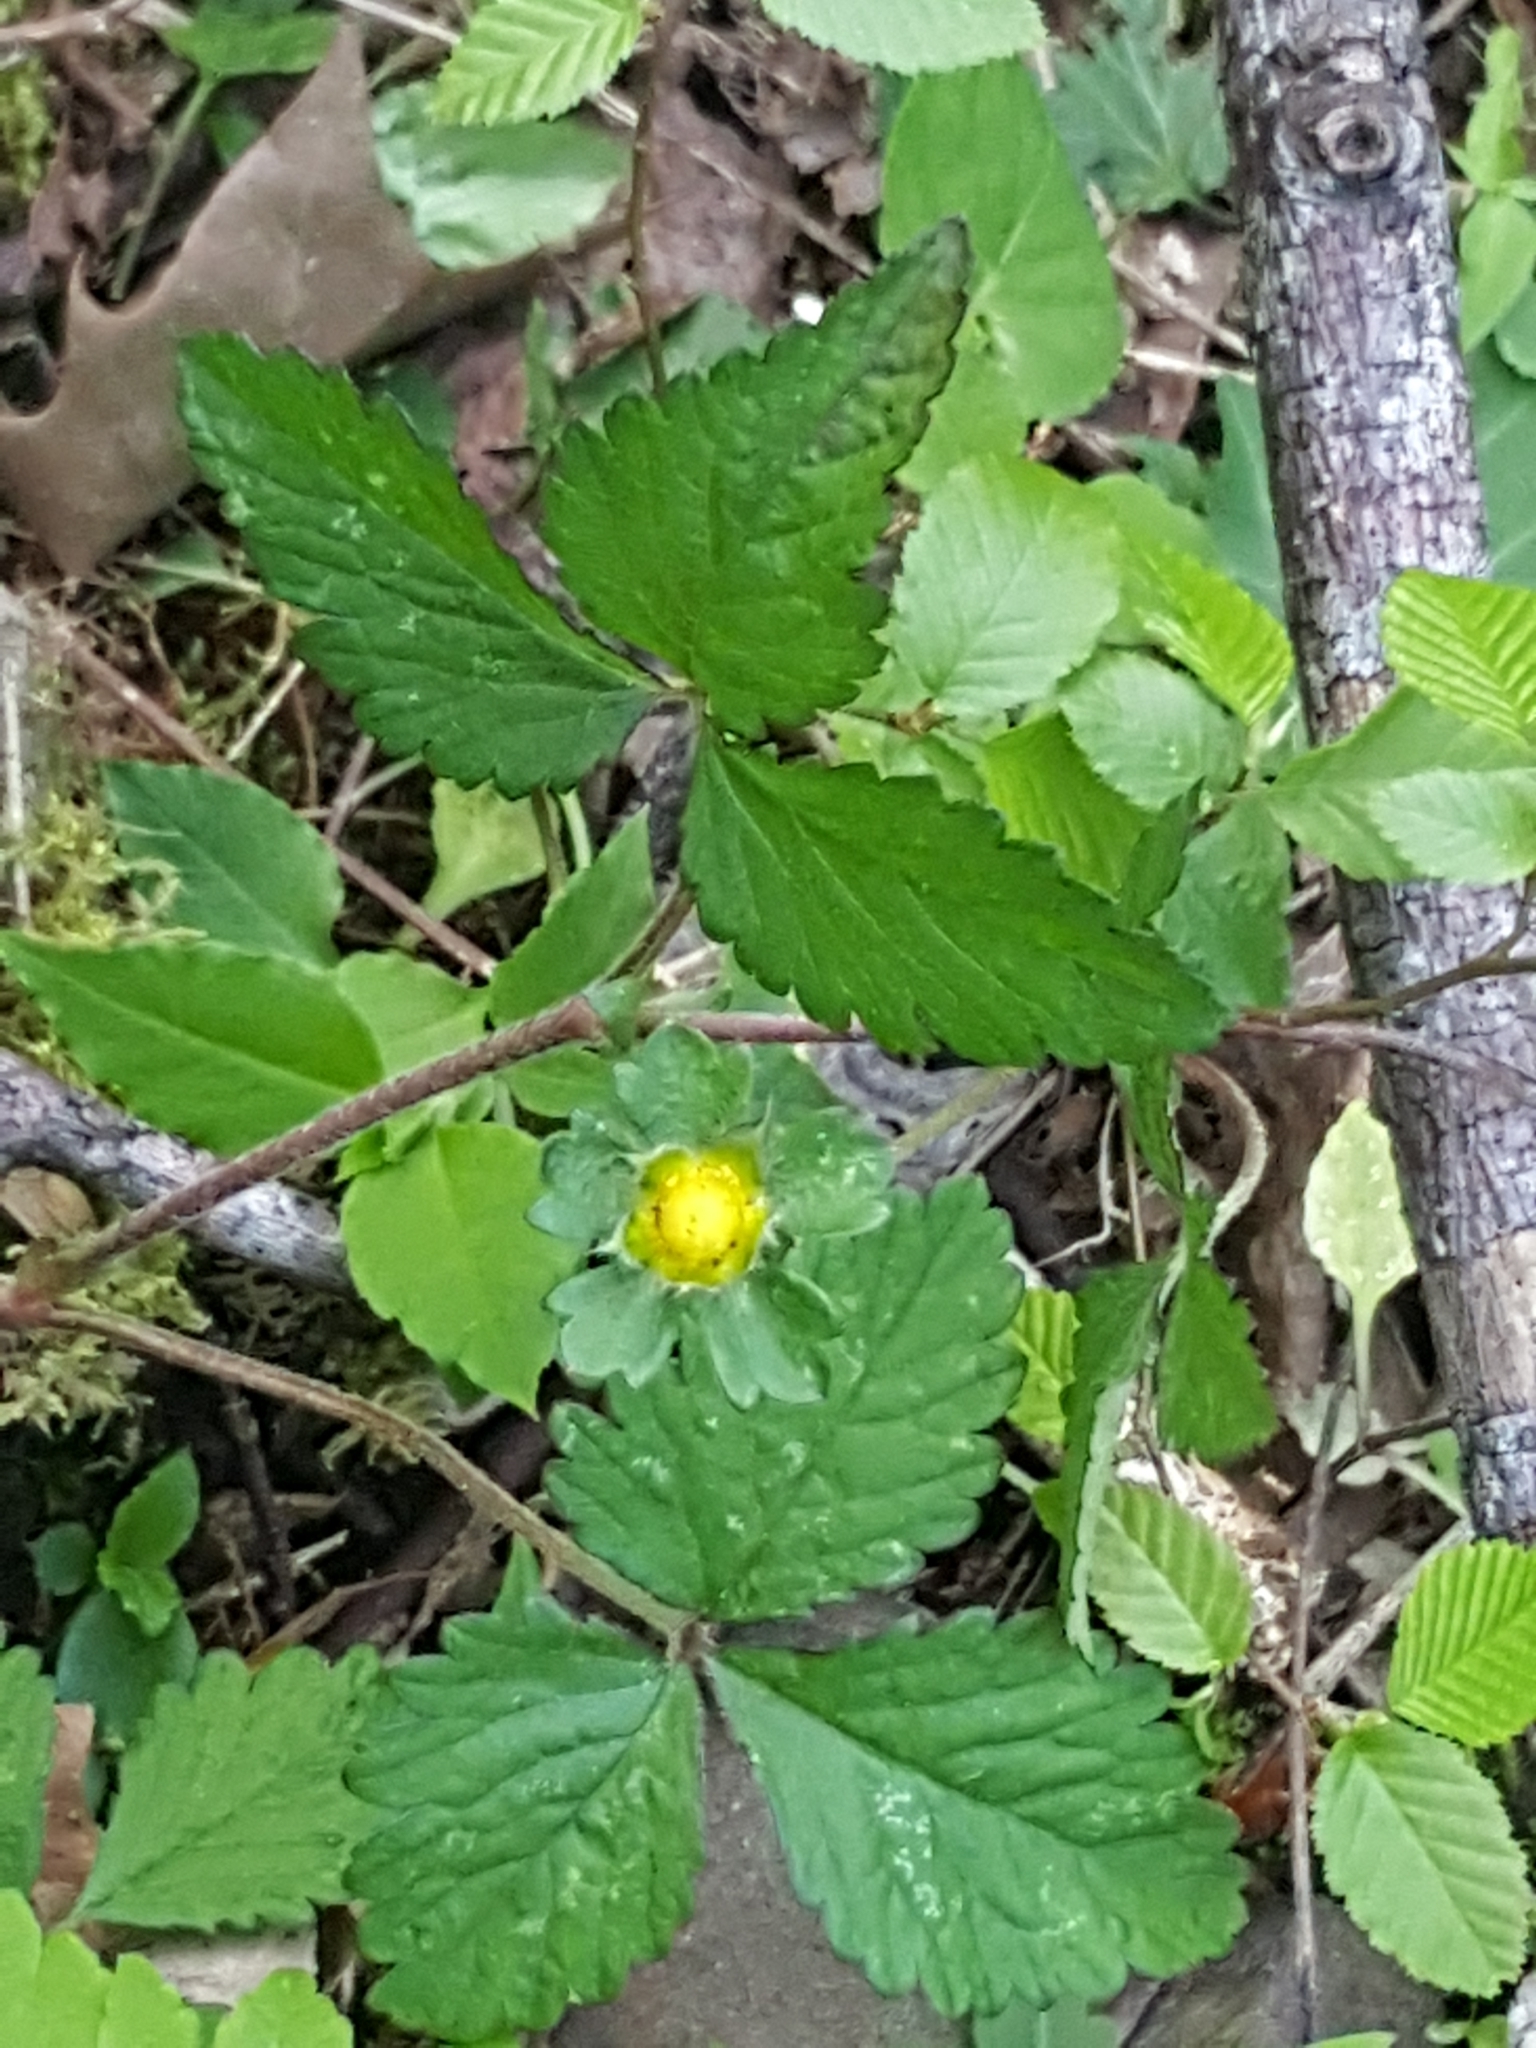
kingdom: Plantae
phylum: Tracheophyta
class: Magnoliopsida
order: Rosales
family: Rosaceae
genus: Potentilla
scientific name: Potentilla indica
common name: Yellow-flowered strawberry
